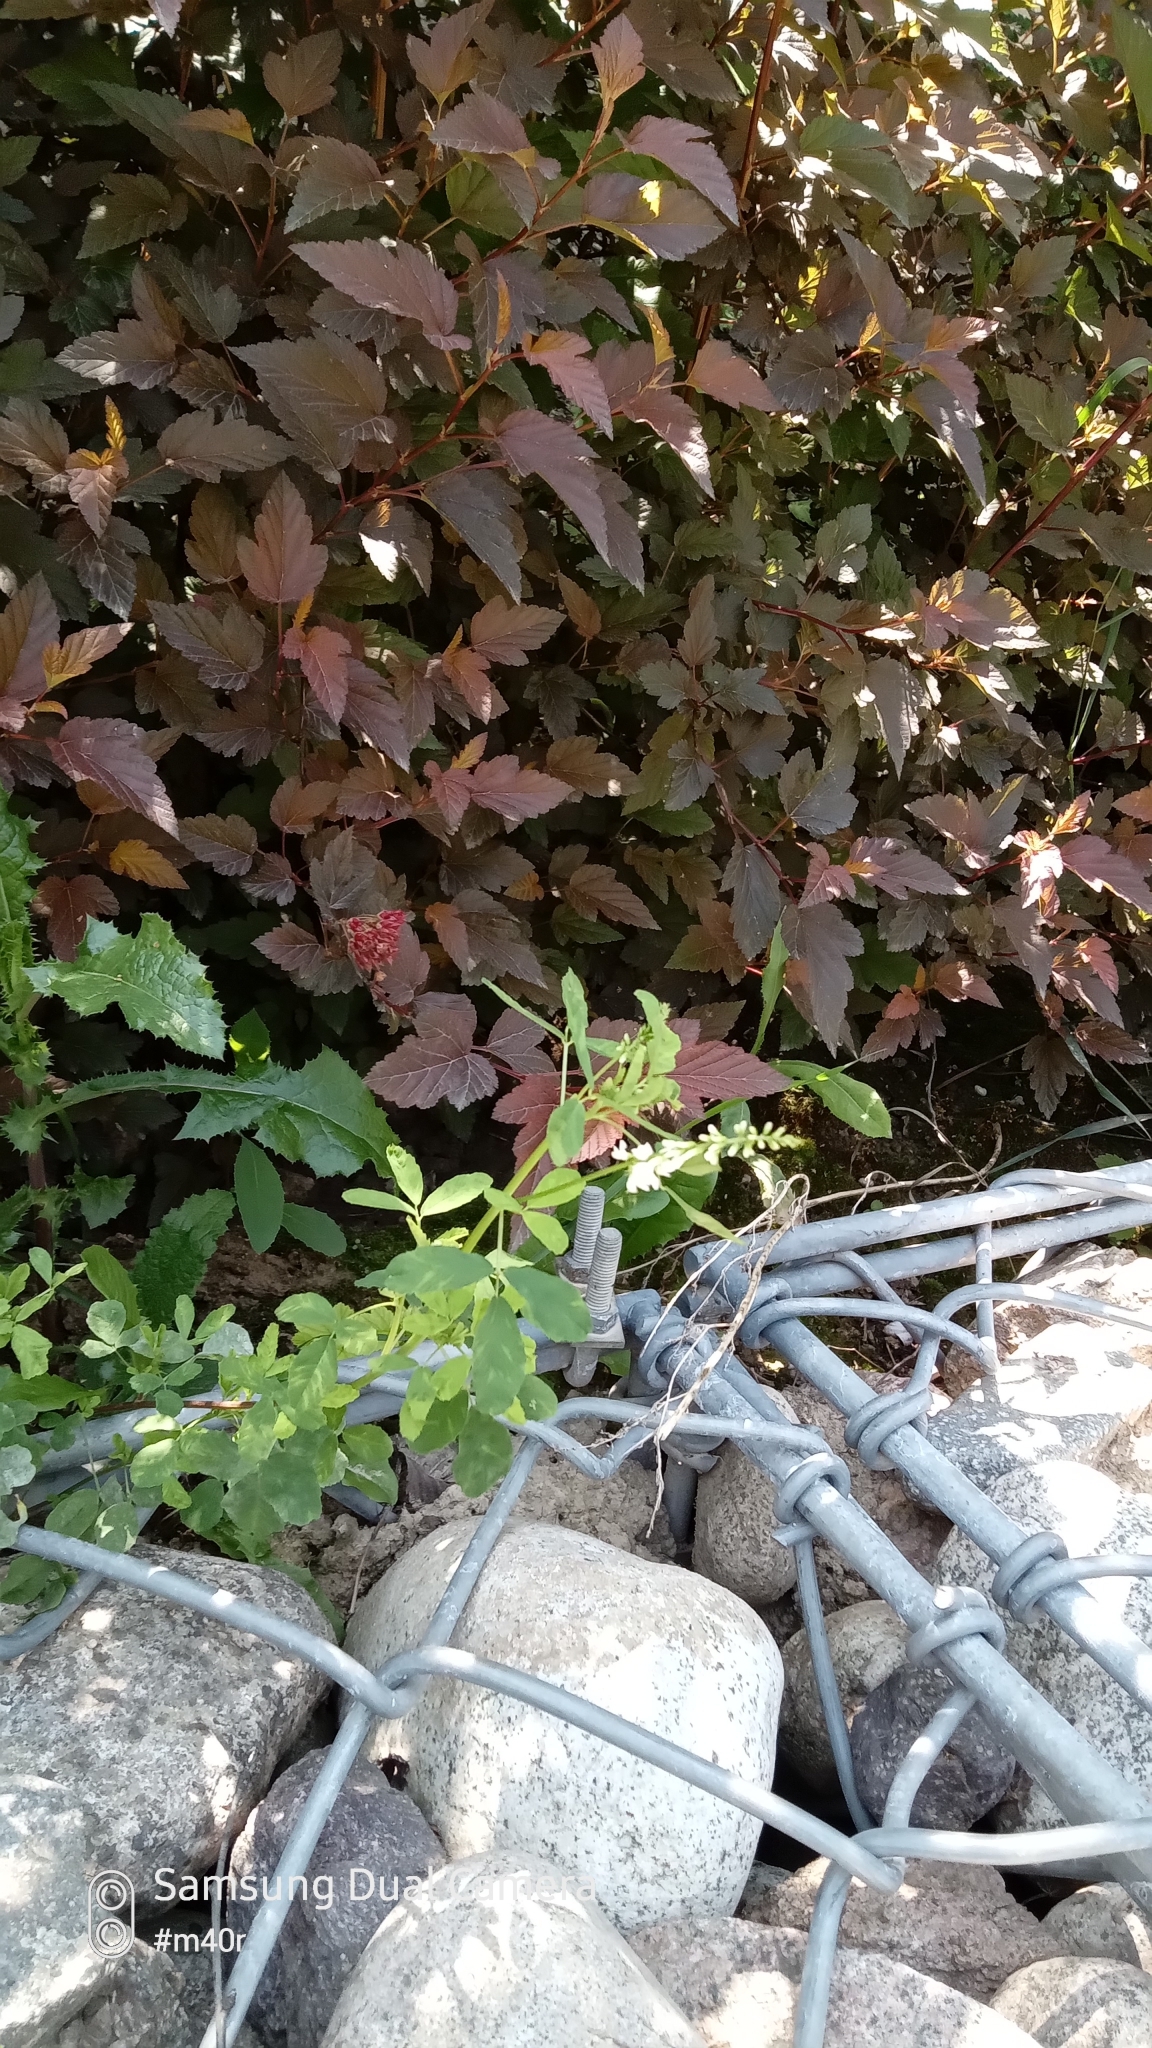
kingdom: Plantae
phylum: Tracheophyta
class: Magnoliopsida
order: Fabales
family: Fabaceae
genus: Melilotus
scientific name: Melilotus albus
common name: White melilot
